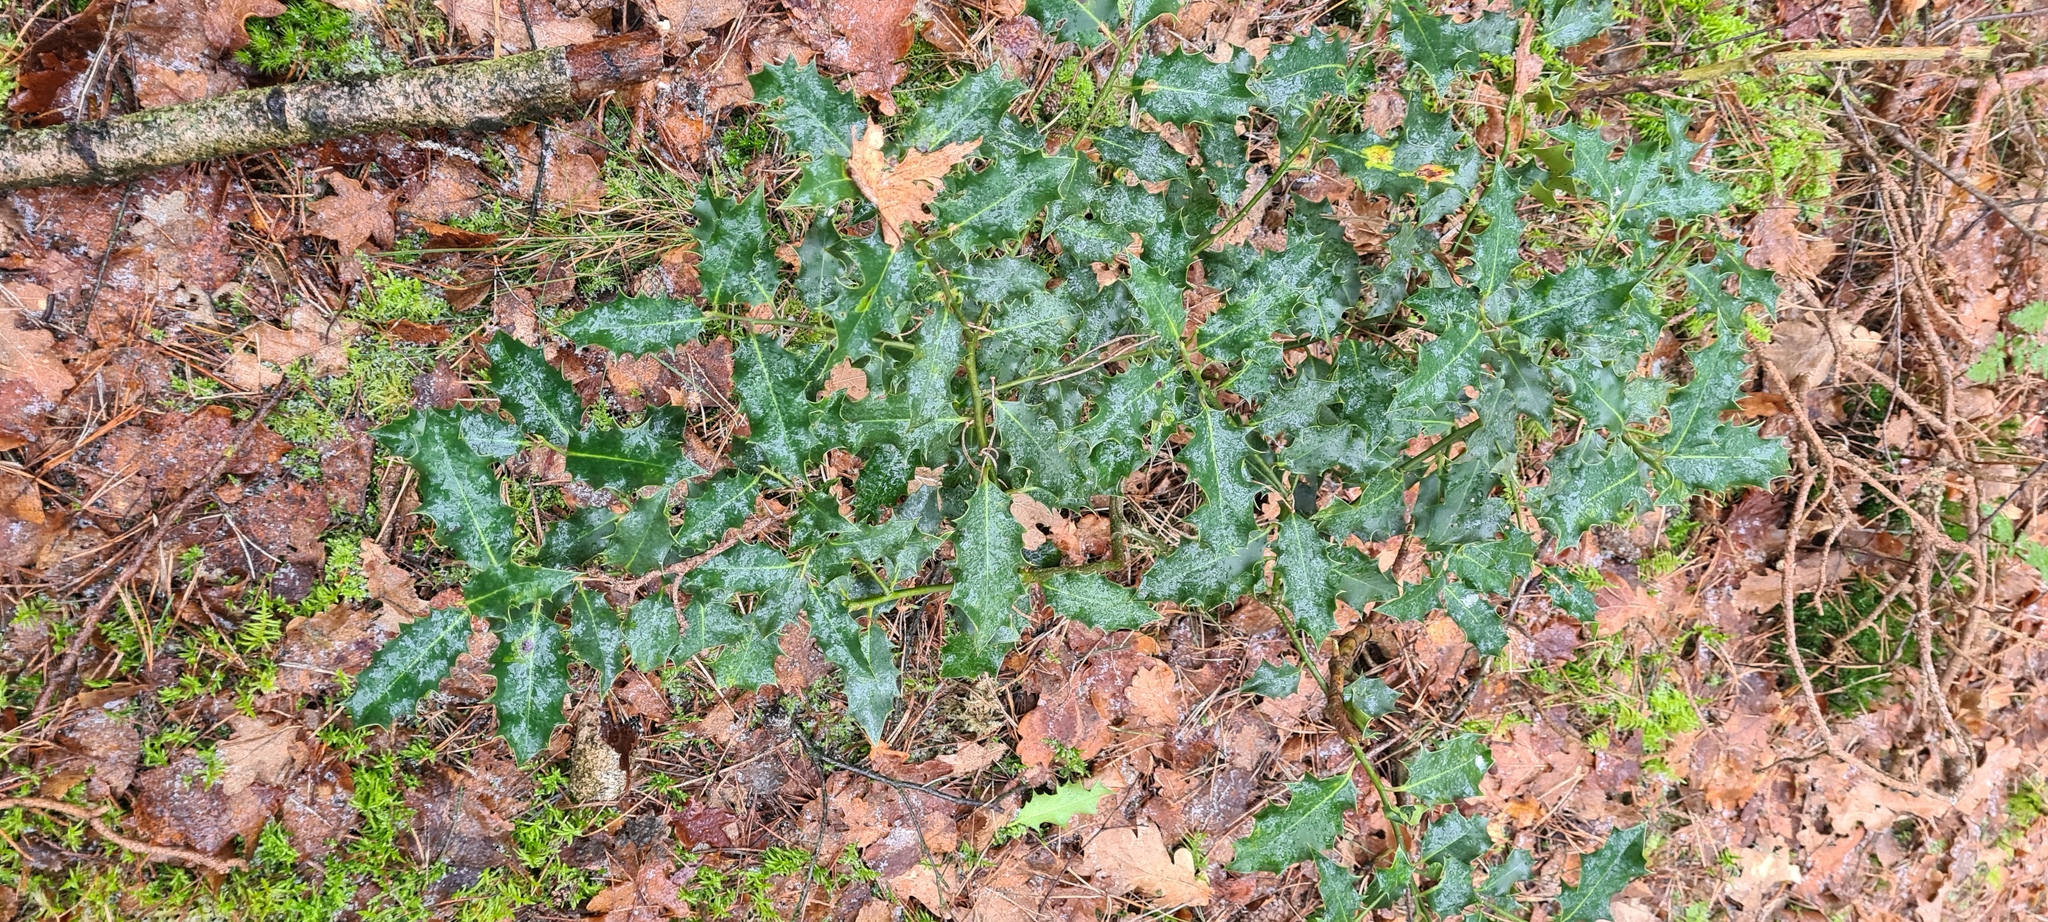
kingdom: Plantae
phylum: Tracheophyta
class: Magnoliopsida
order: Aquifoliales
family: Aquifoliaceae
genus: Ilex
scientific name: Ilex aquifolium
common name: English holly
